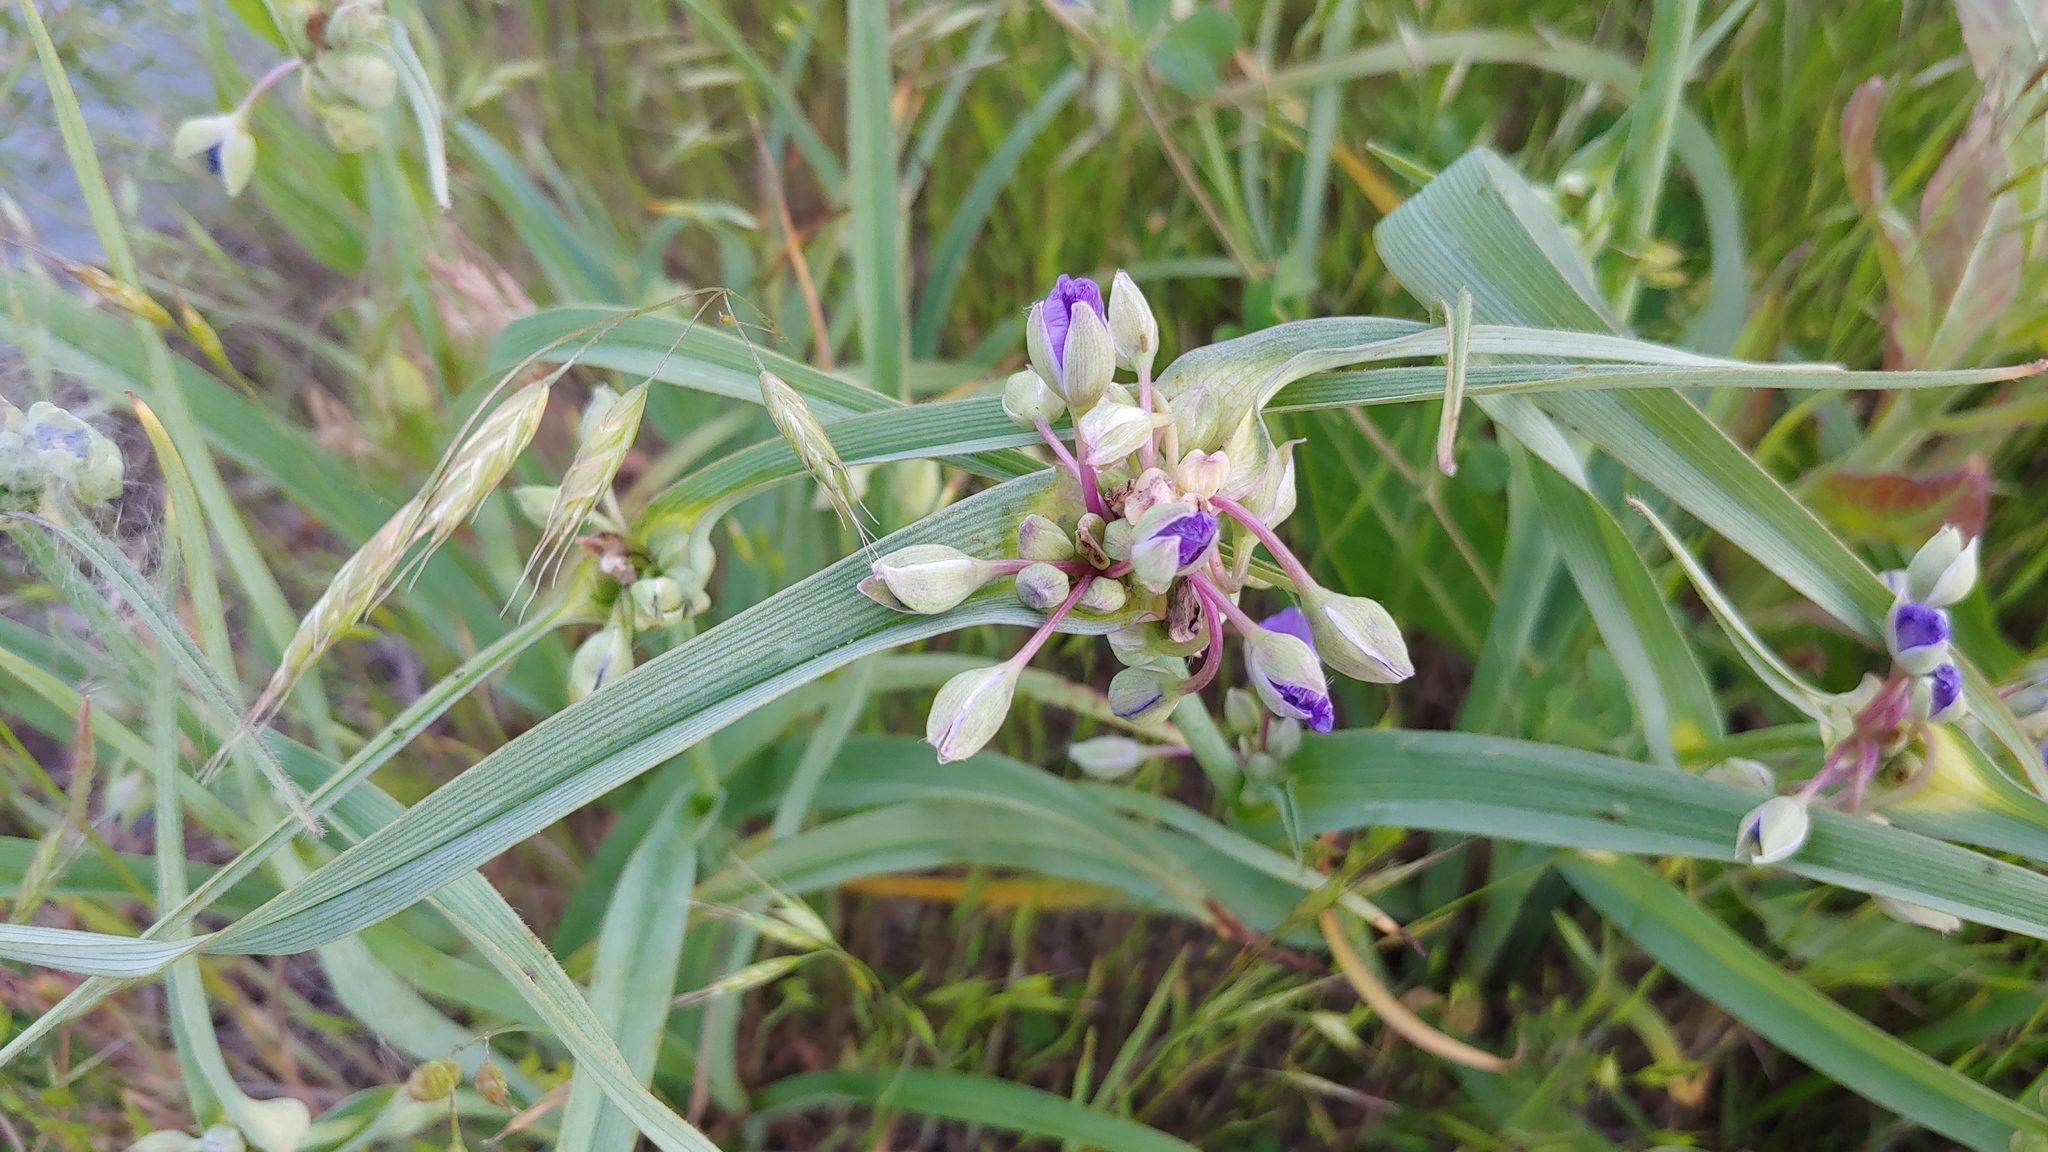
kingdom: Plantae
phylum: Tracheophyta
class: Liliopsida
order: Commelinales
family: Commelinaceae
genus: Tradescantia
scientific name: Tradescantia ohiensis
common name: Ohio spiderwort
